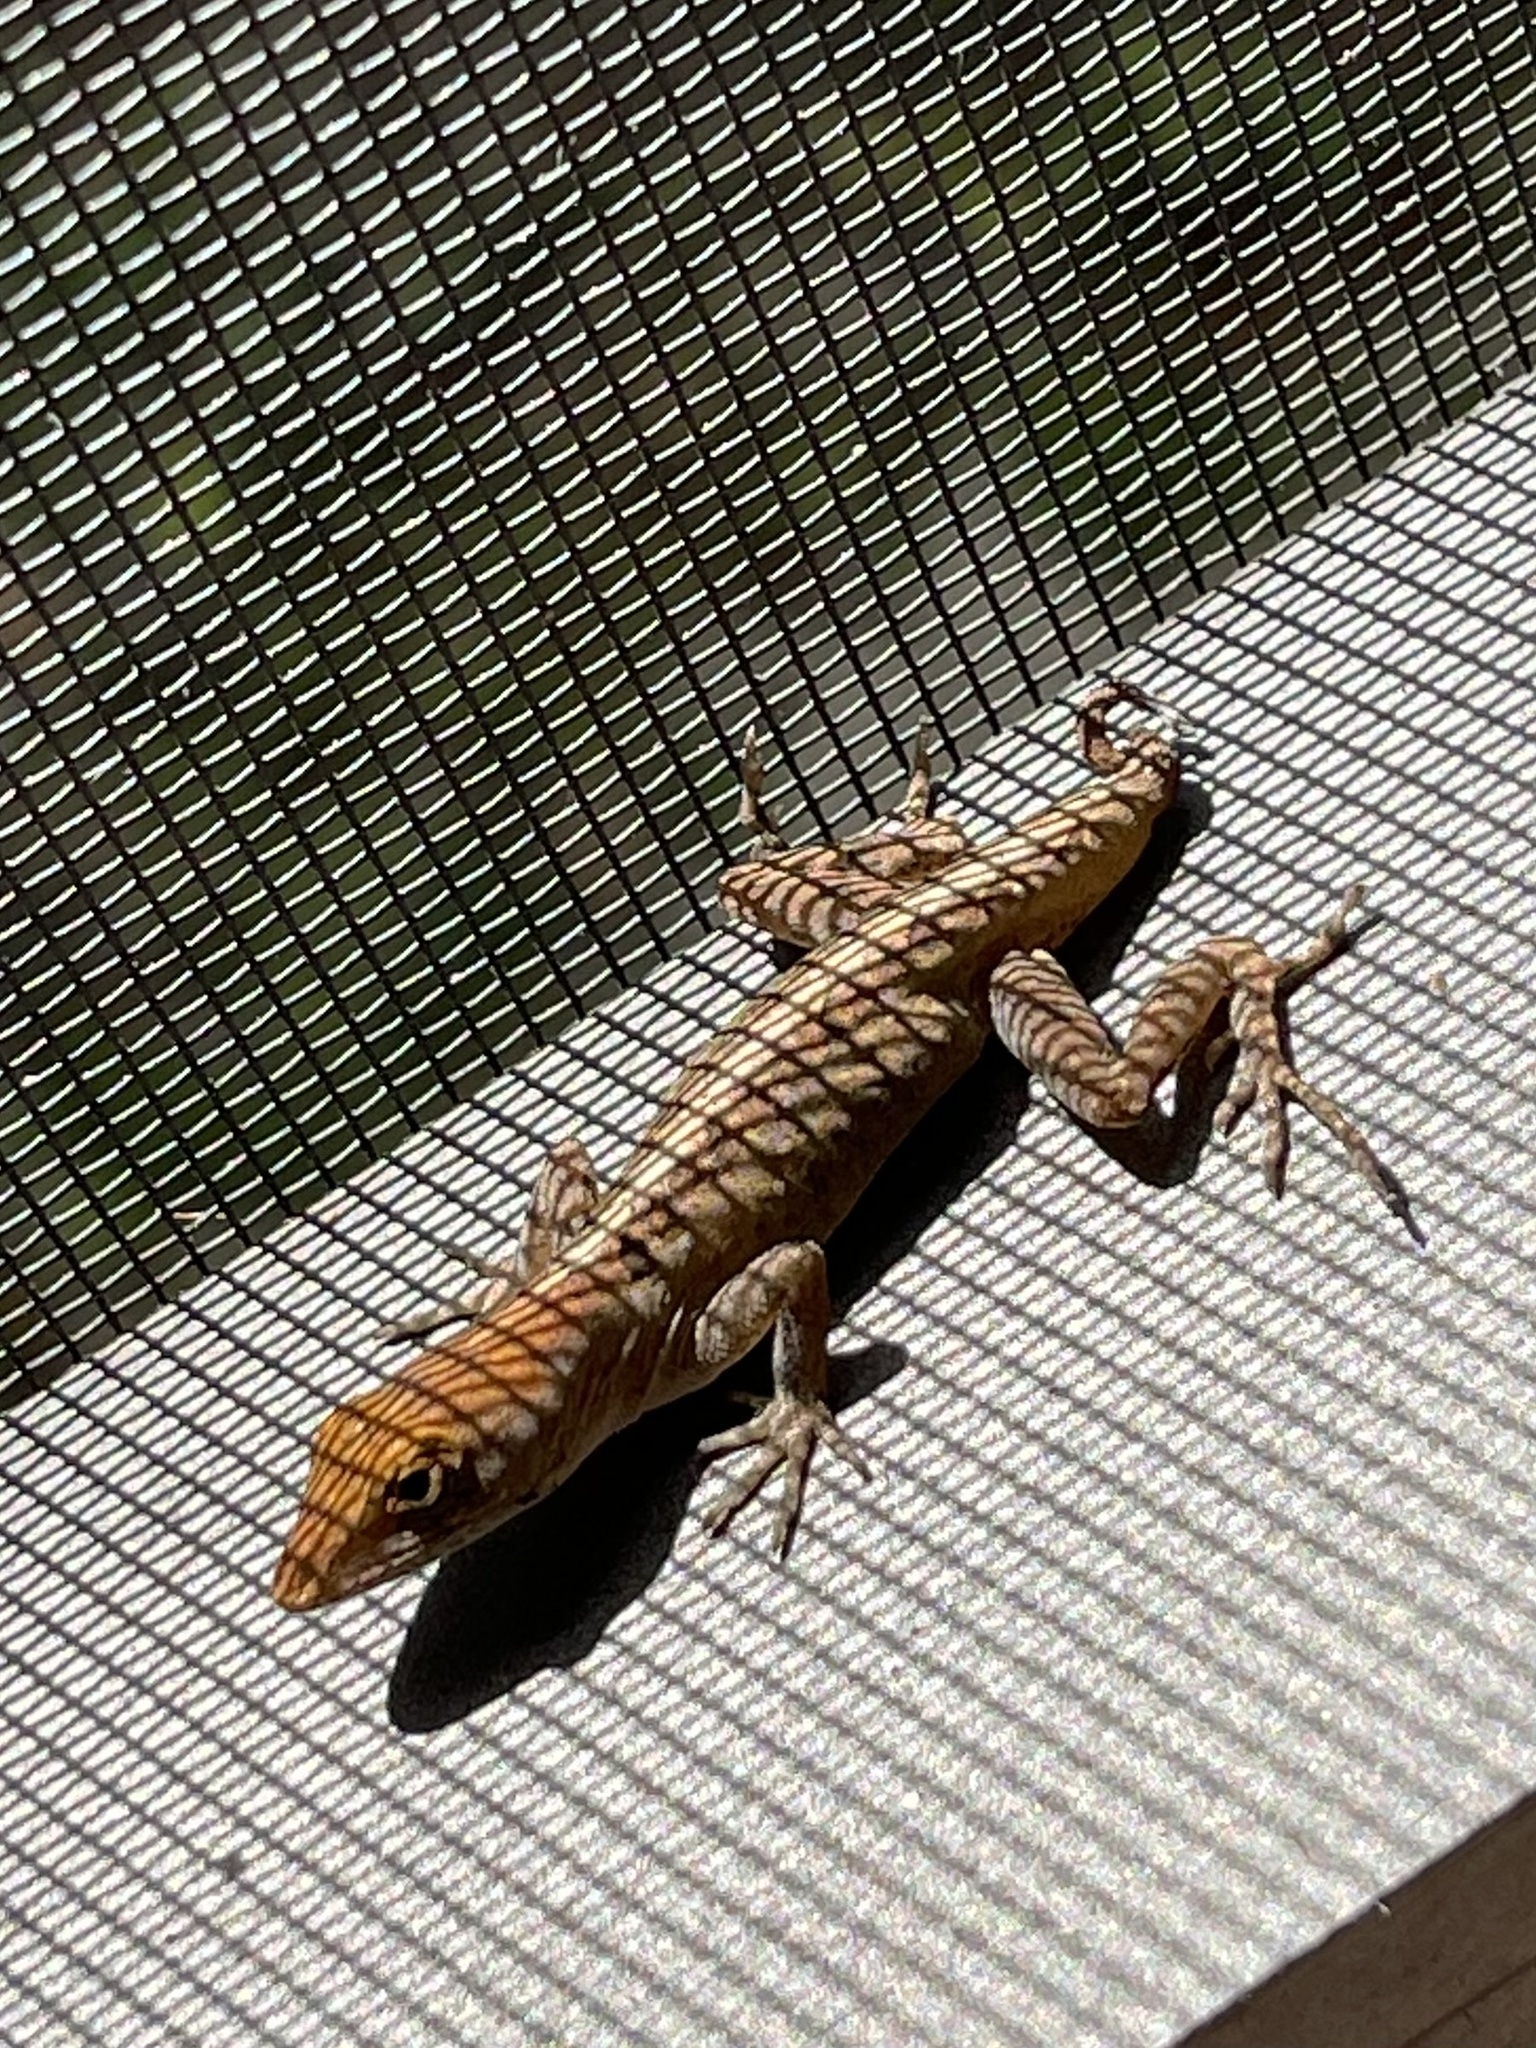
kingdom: Animalia
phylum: Chordata
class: Squamata
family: Dactyloidae
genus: Anolis
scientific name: Anolis sagrei
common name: Brown anole
